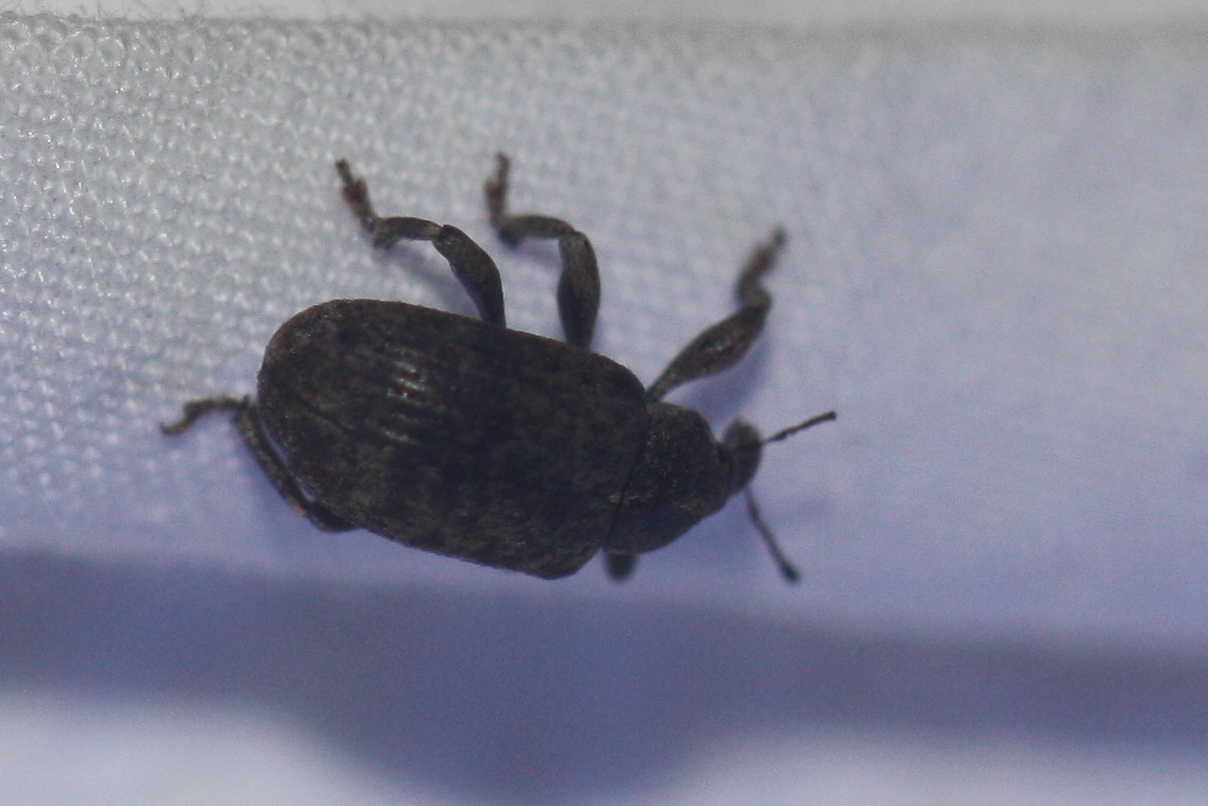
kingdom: Animalia
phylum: Arthropoda
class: Insecta
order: Coleoptera
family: Curculionidae
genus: Isorhinus
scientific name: Isorhinus fuscomaculatus
